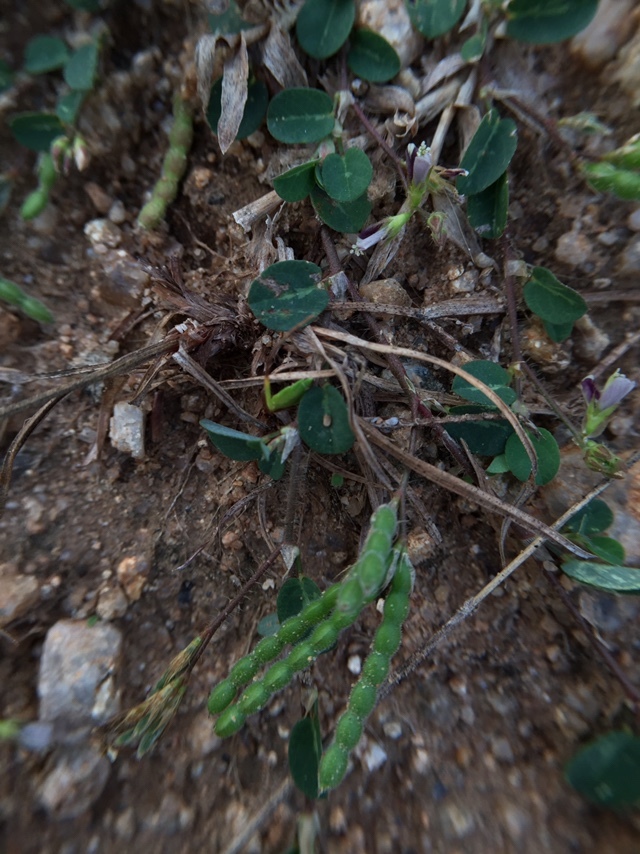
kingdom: Plantae
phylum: Tracheophyta
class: Magnoliopsida
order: Fabales
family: Fabaceae
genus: Alysicarpus
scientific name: Alysicarpus monilifer
